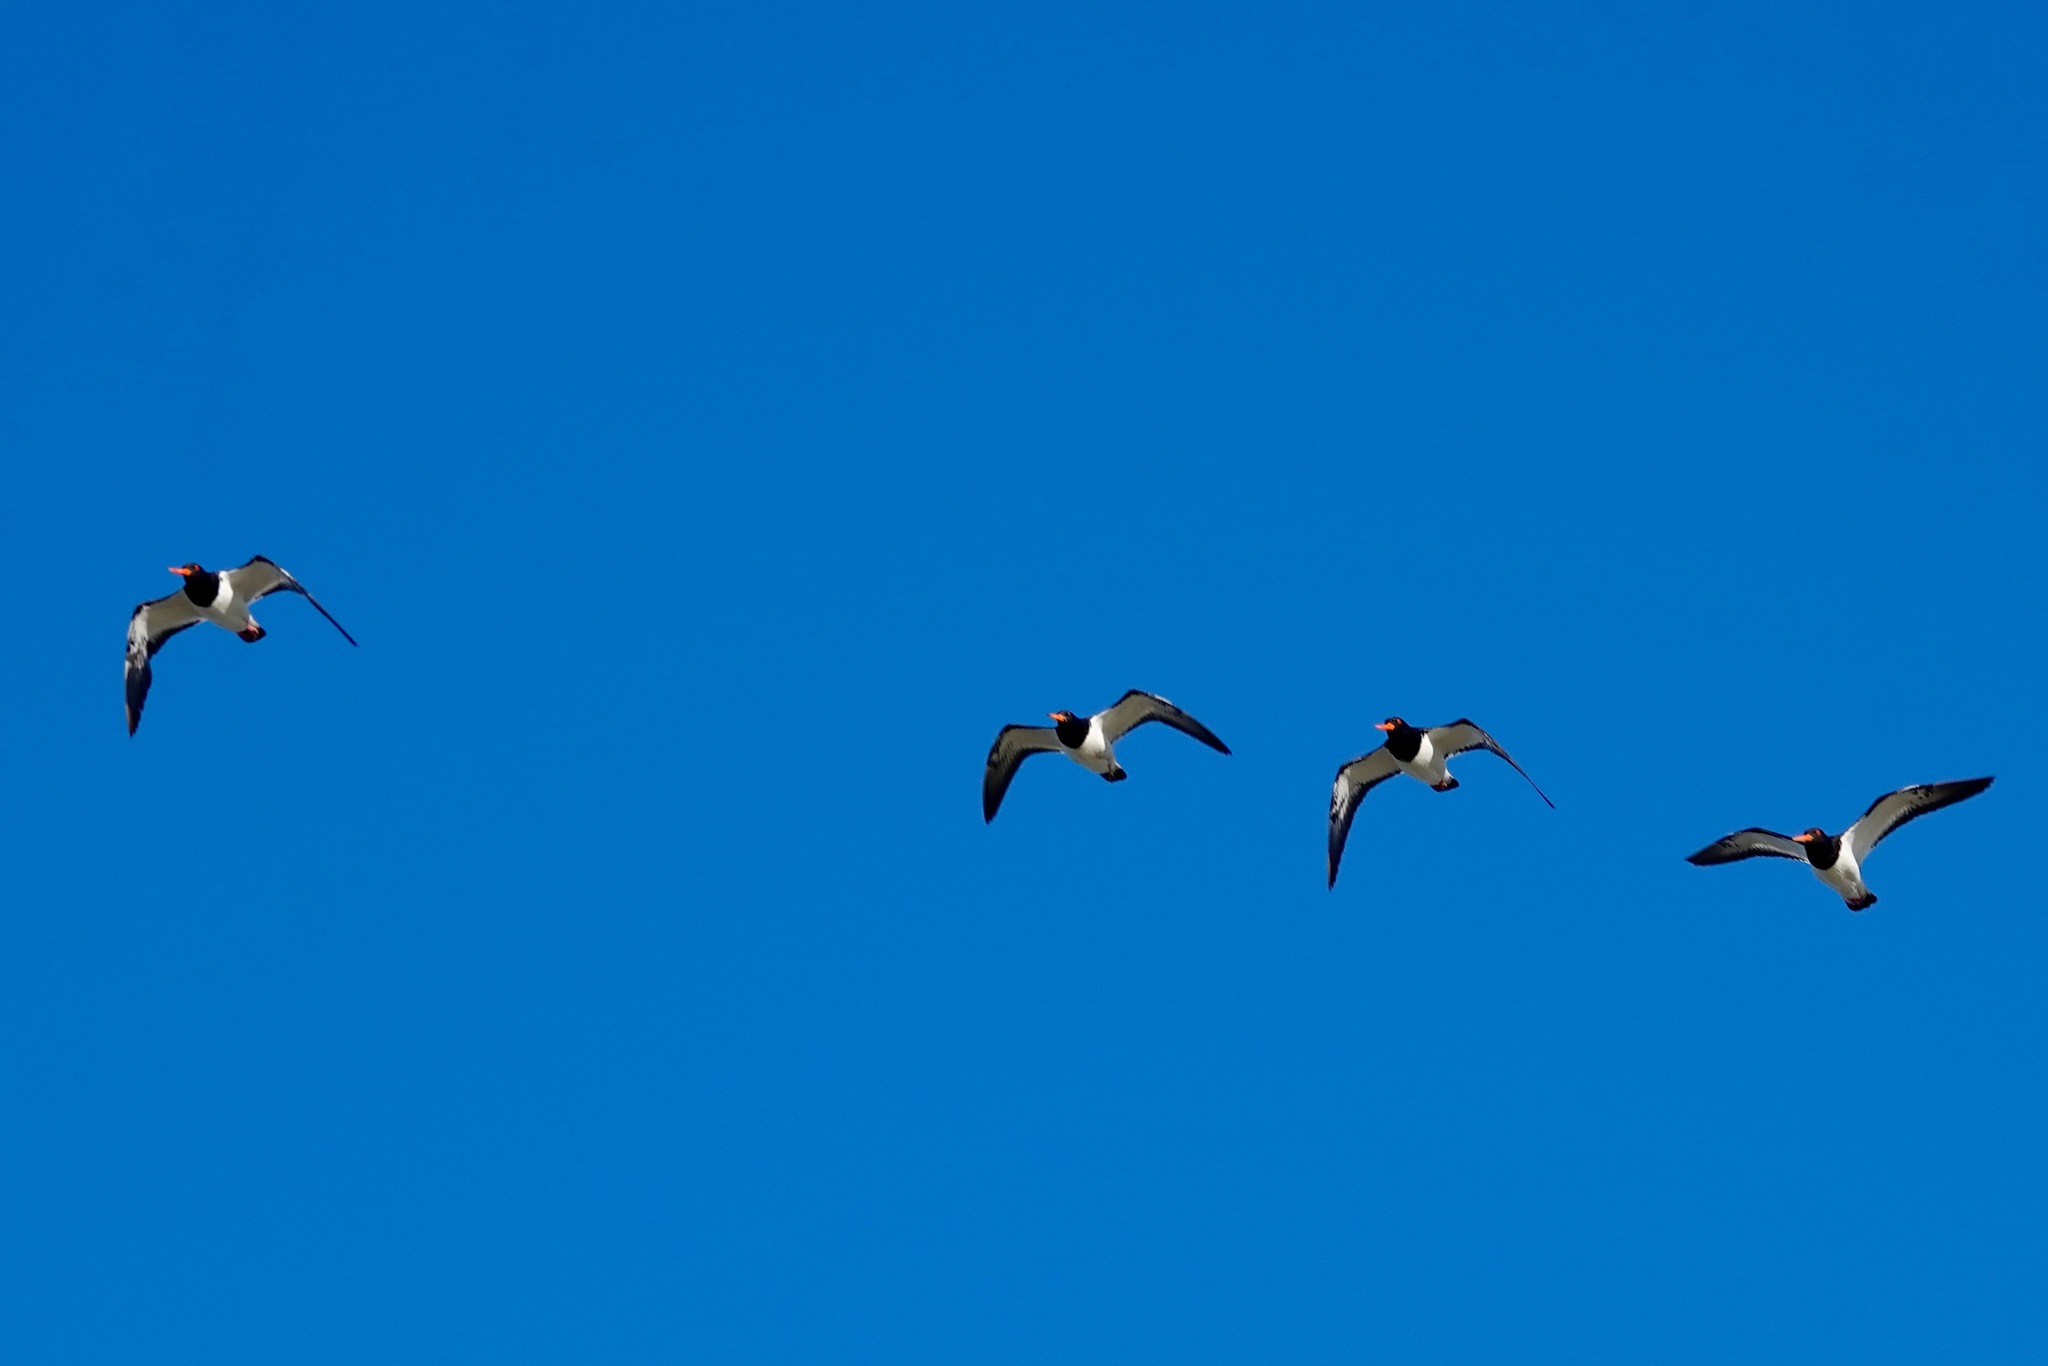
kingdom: Animalia
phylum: Chordata
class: Aves
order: Charadriiformes
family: Haematopodidae
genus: Haematopus
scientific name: Haematopus finschi
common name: South island oystercatcher
